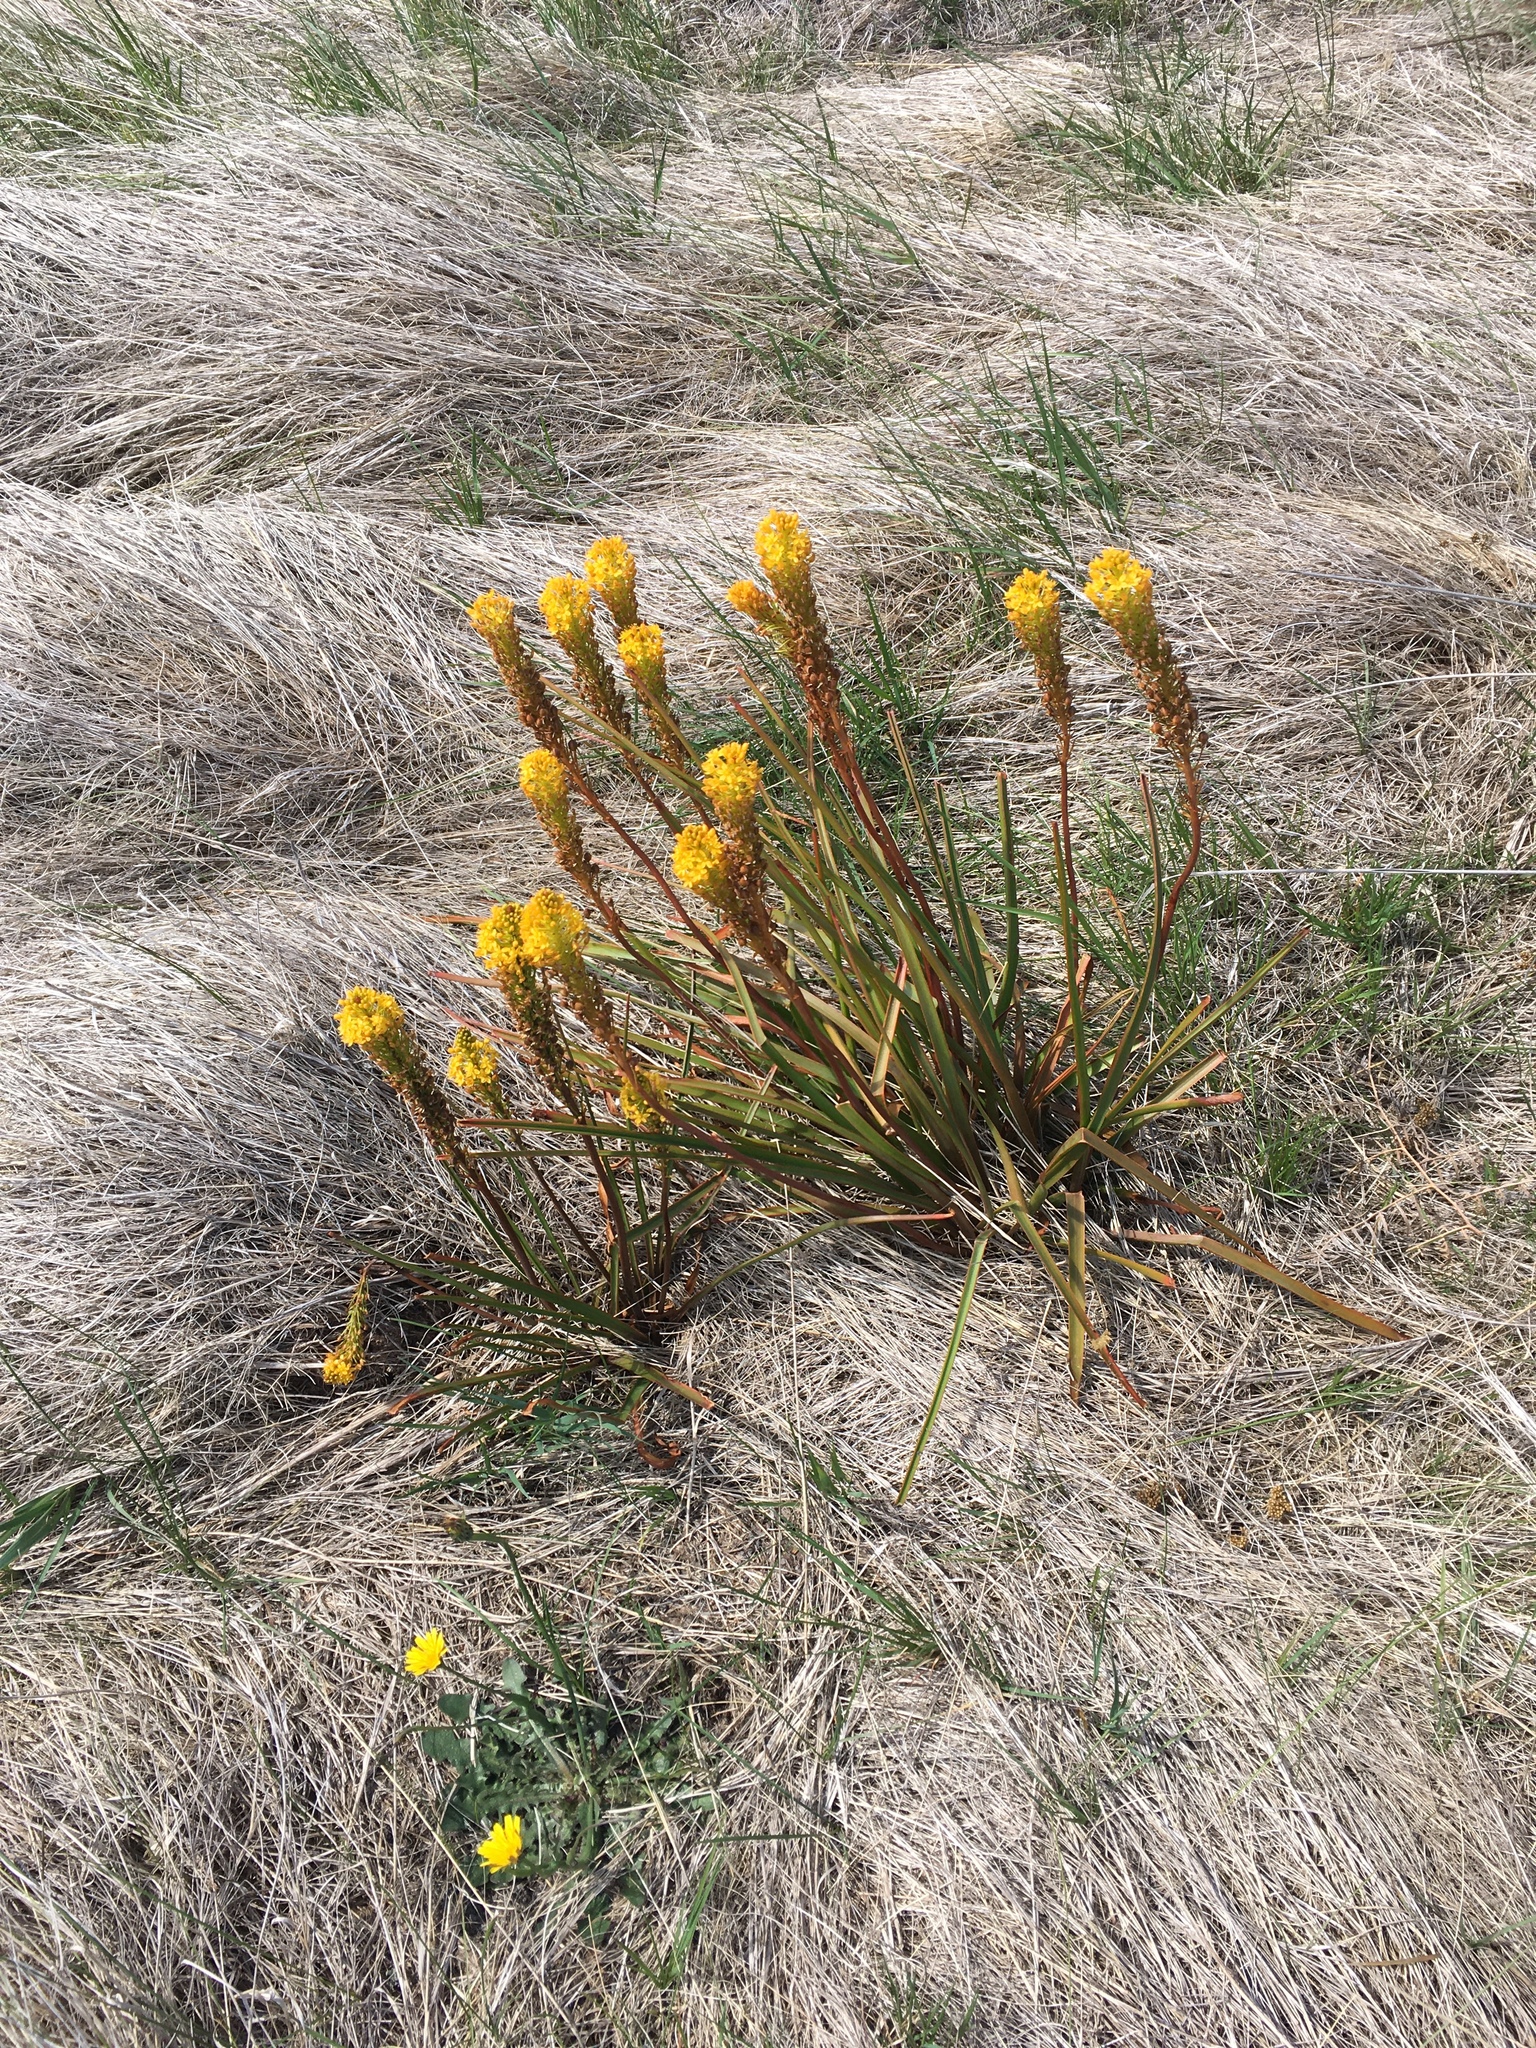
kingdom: Plantae
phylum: Tracheophyta
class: Liliopsida
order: Asparagales
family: Asphodelaceae
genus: Bulbinella
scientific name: Bulbinella angustifolia
